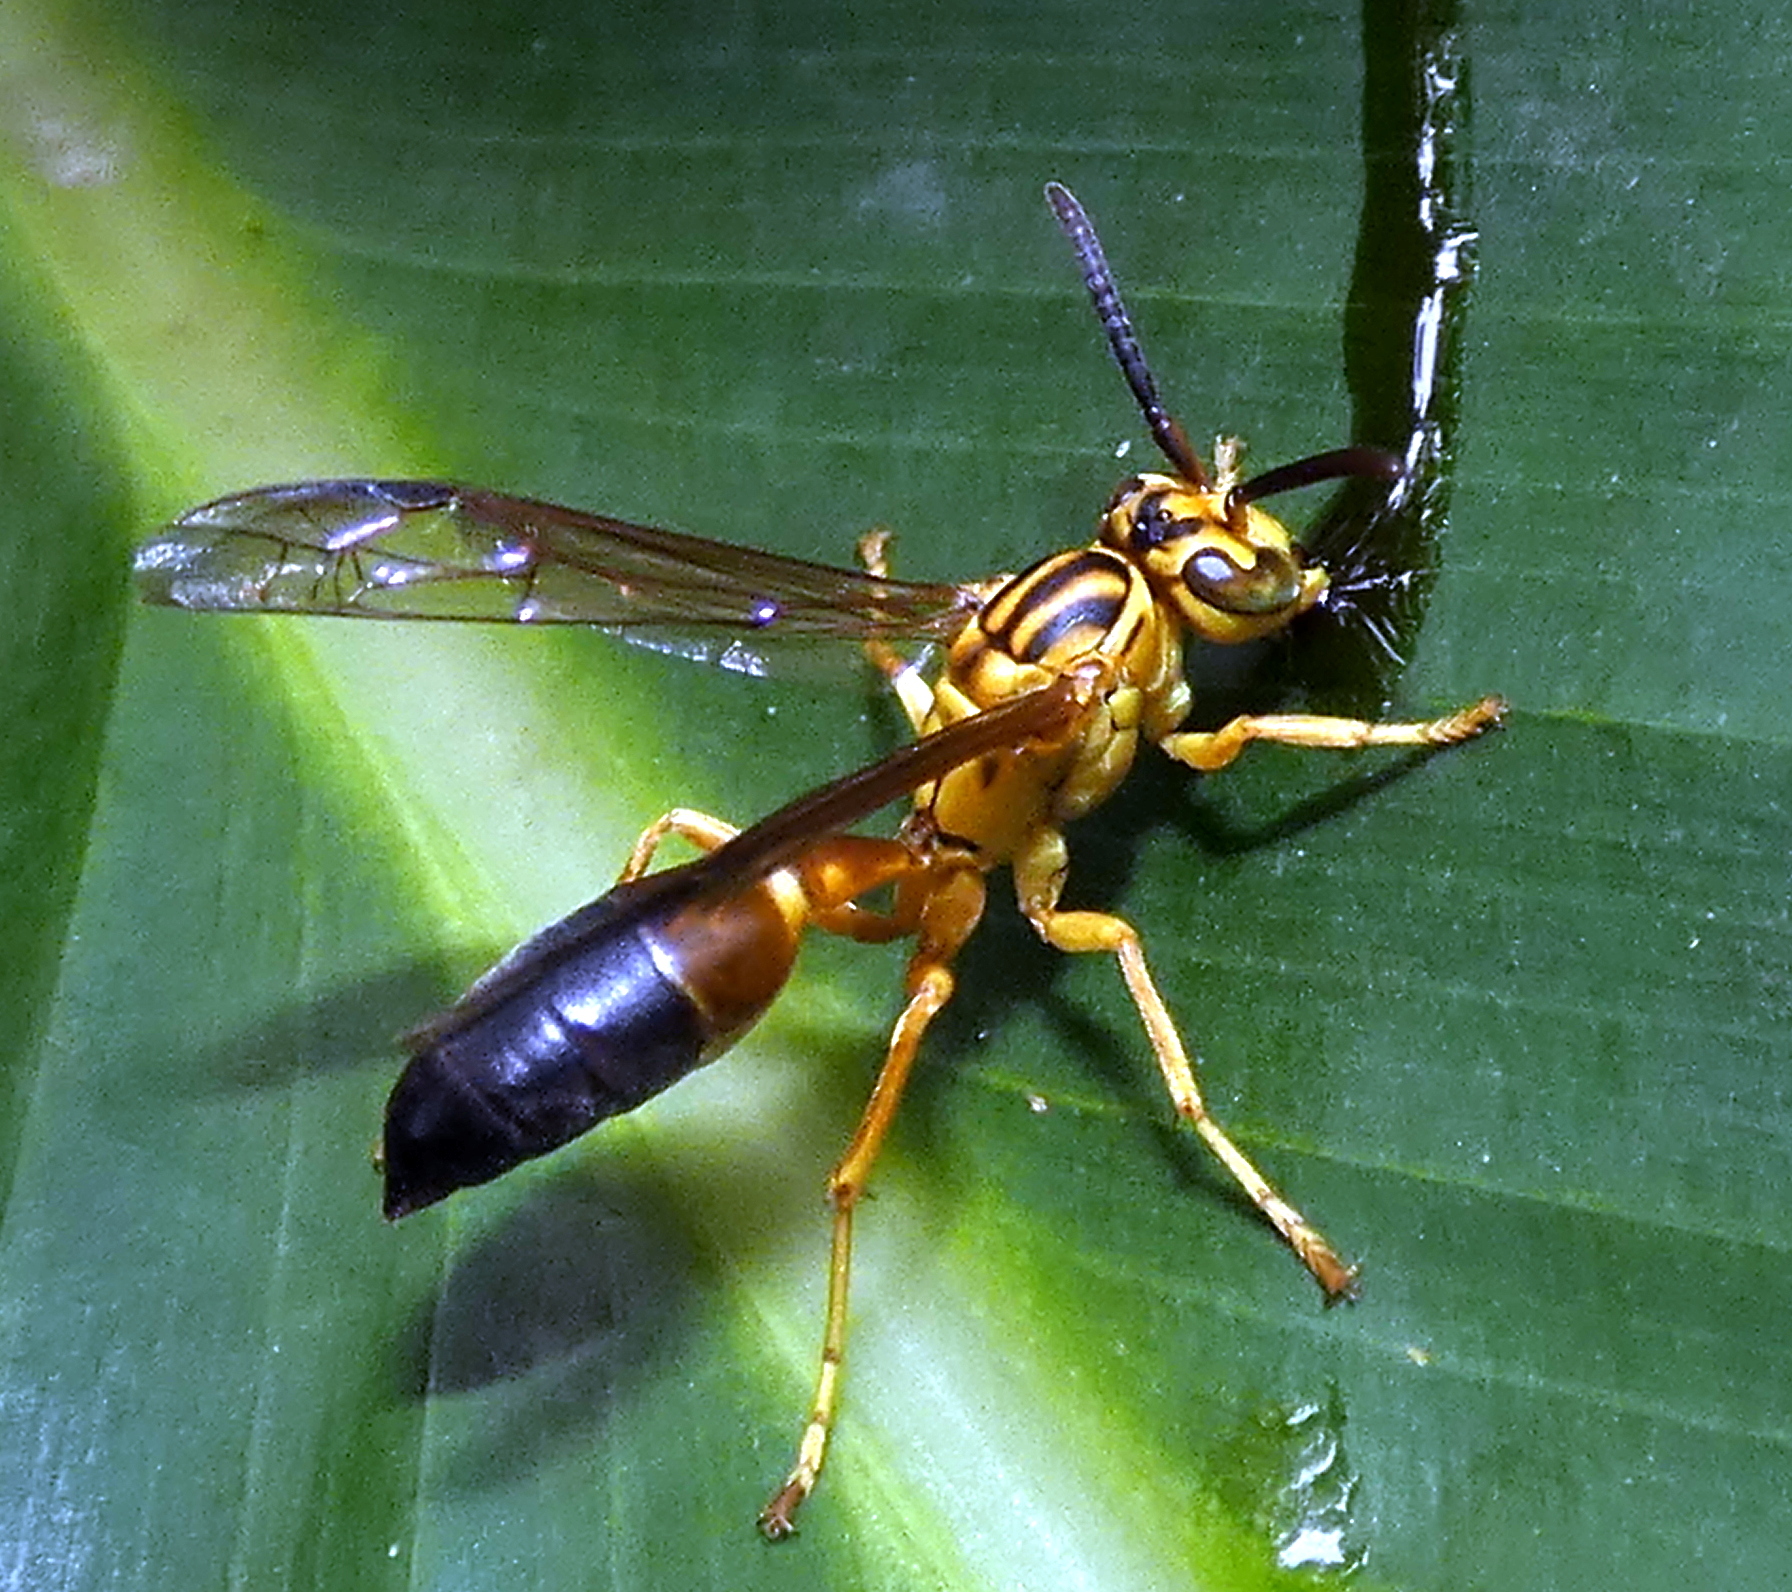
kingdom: Animalia
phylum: Arthropoda
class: Insecta
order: Hymenoptera
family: Vespidae
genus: Agelaia
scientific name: Agelaia pallipes
